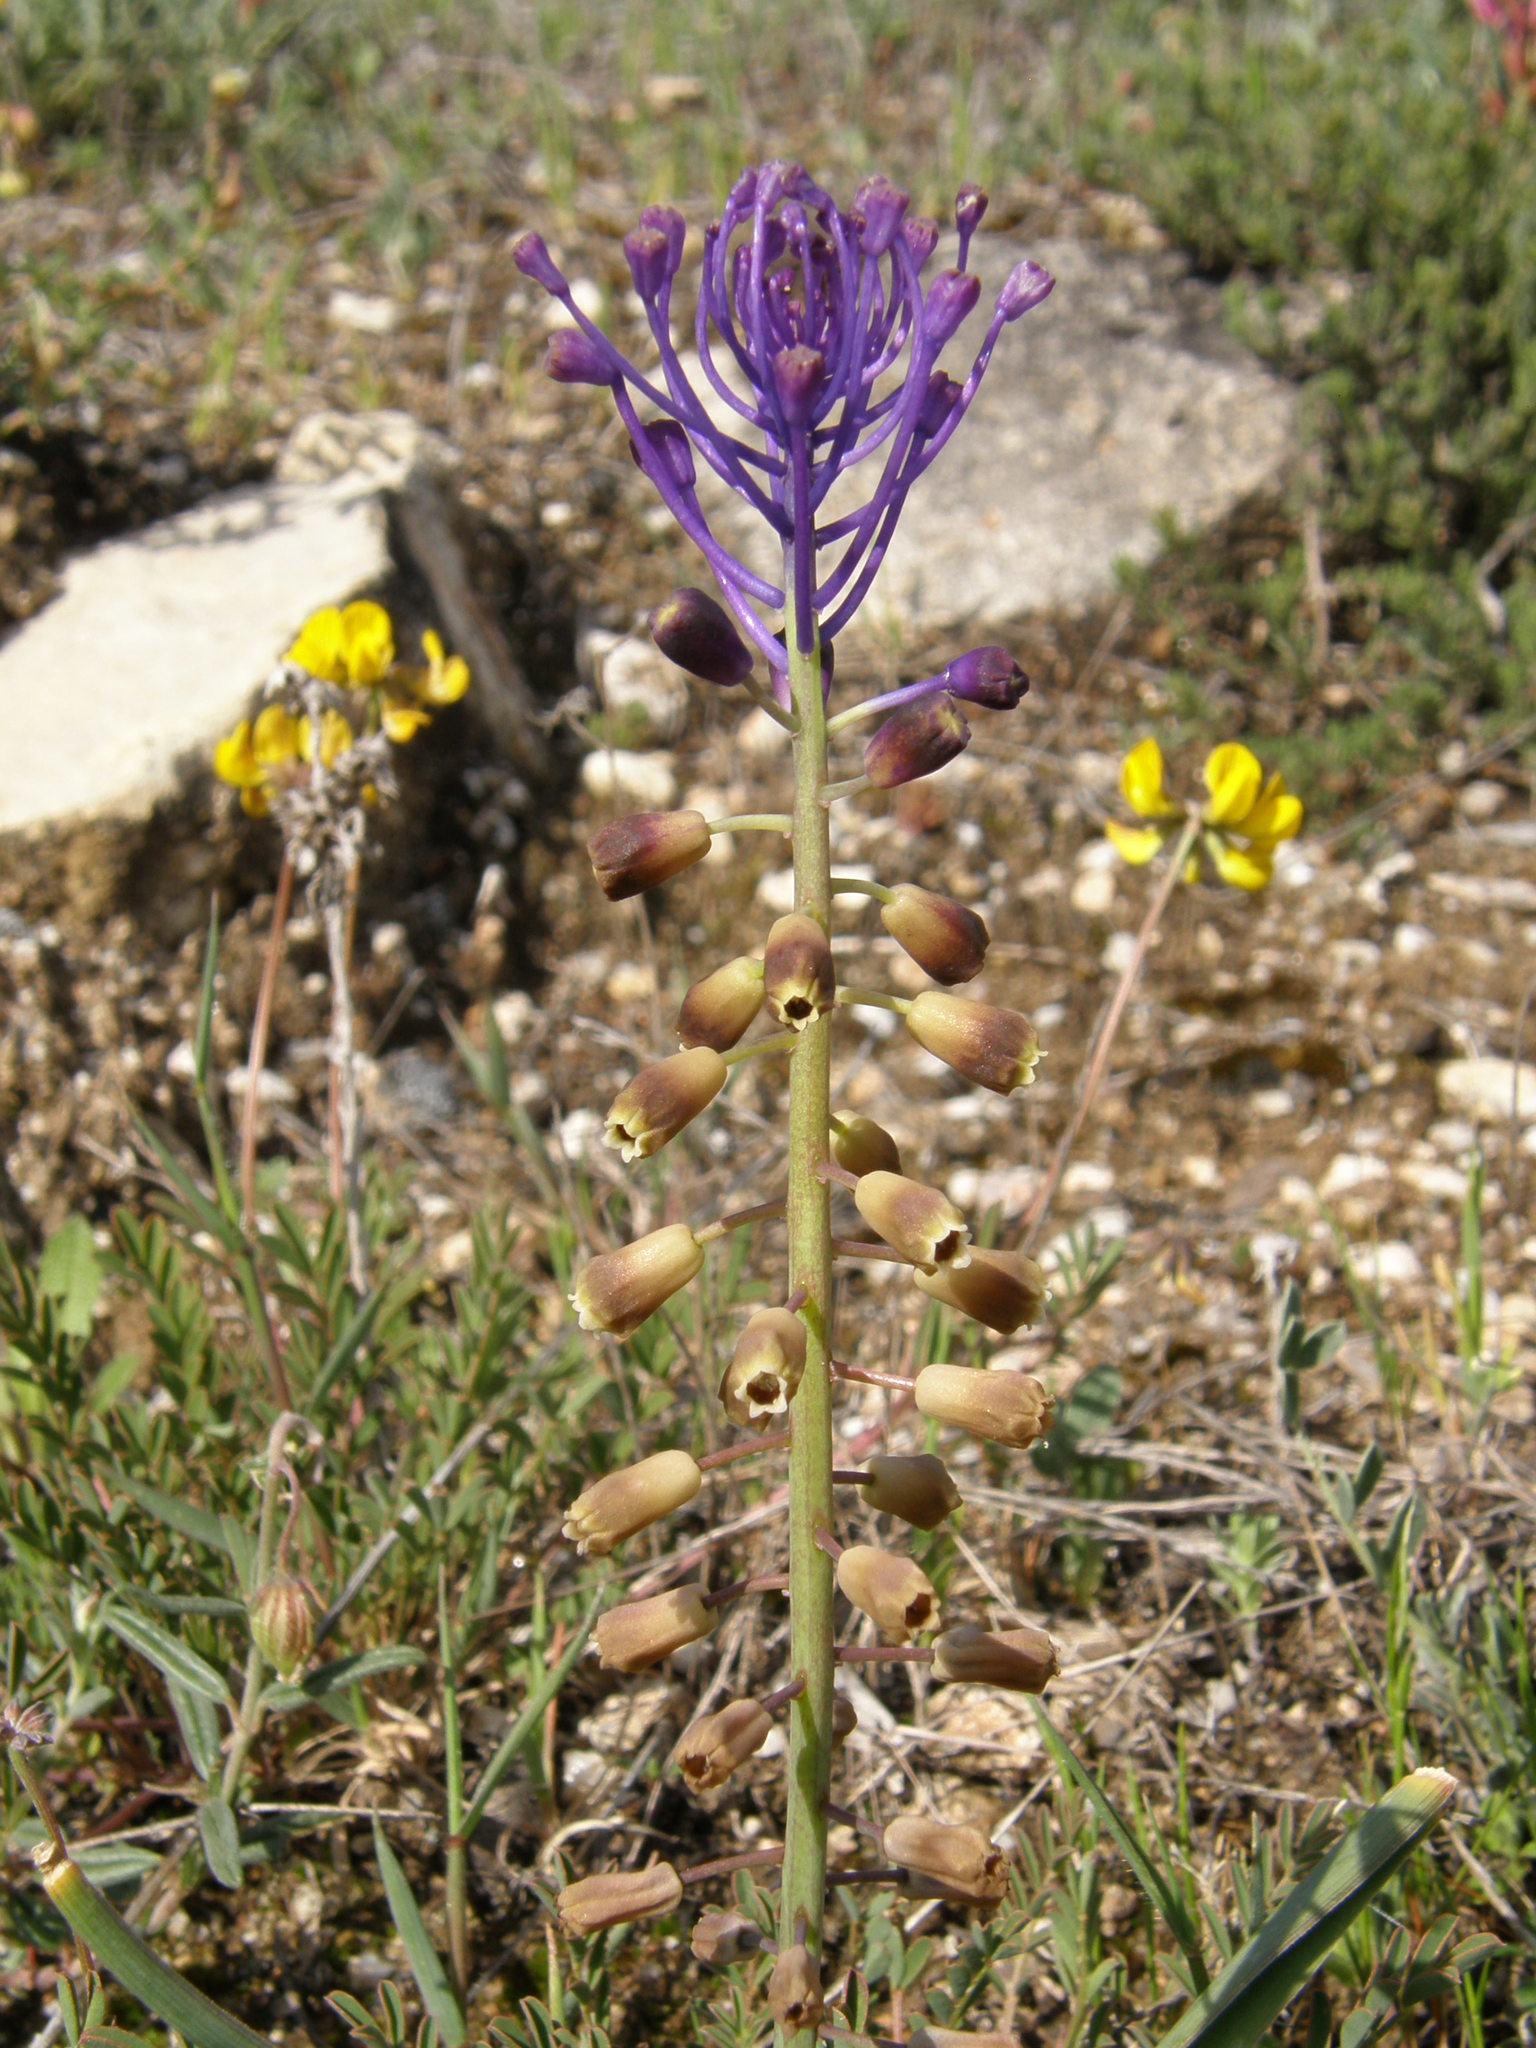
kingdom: Plantae
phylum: Tracheophyta
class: Liliopsida
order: Asparagales
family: Asparagaceae
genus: Muscari
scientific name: Muscari comosum
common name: Tassel hyacinth
